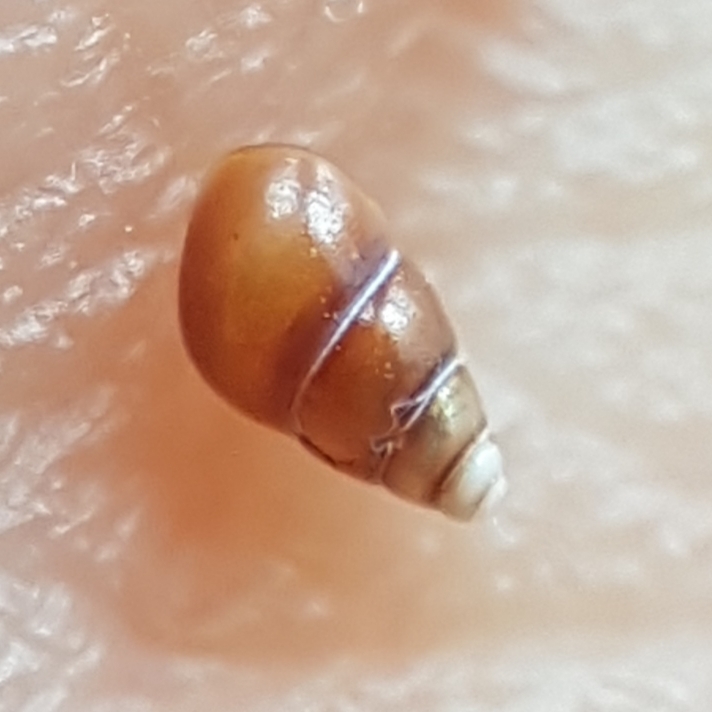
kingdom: Animalia
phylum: Mollusca
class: Gastropoda
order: Littorinimorpha
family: Barleeiidae
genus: Barleeia
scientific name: Barleeia unifasciata
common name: Red spire snail
